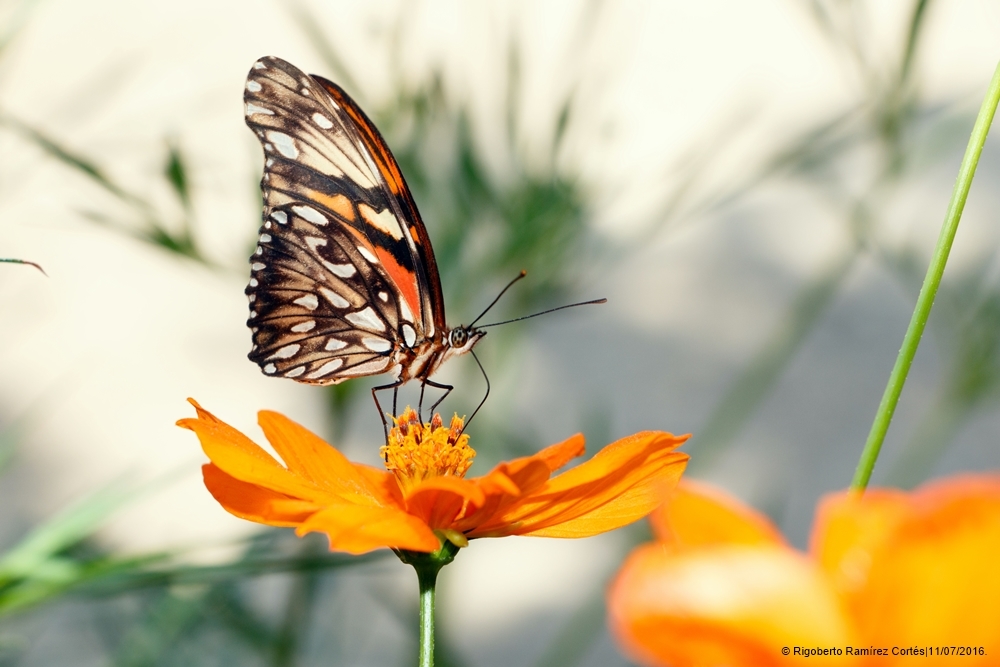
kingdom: Animalia
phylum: Arthropoda
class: Insecta
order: Lepidoptera
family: Nymphalidae
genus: Dione
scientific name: Dione juno
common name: Juno silverspot
